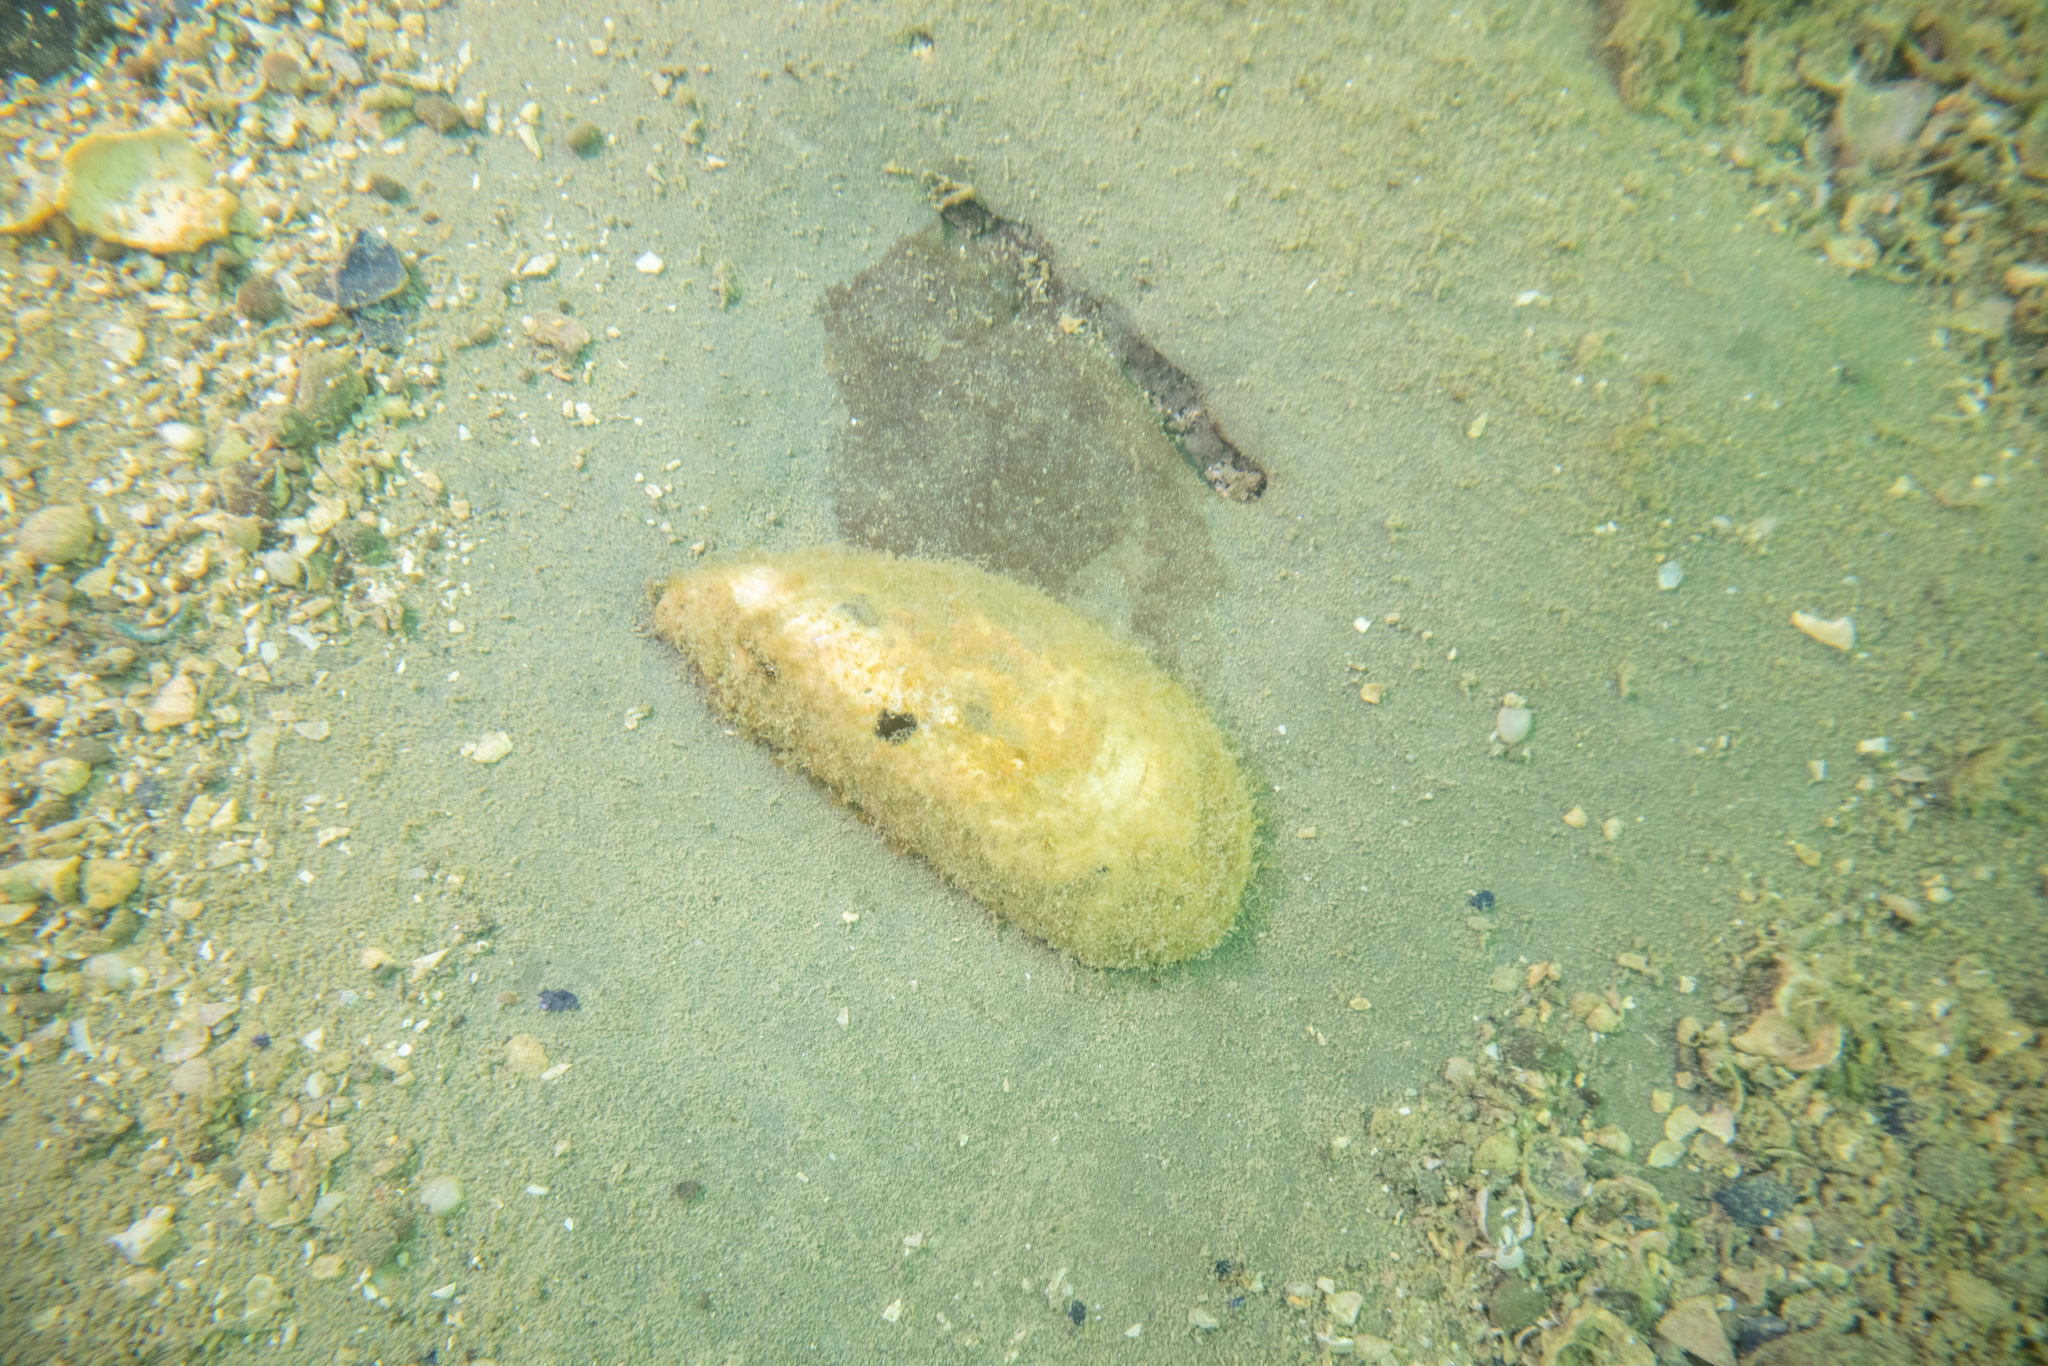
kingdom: Animalia
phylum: Mollusca
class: Bivalvia
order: Mytilida
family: Mytilidae
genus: Perna
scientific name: Perna canaliculus
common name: New zealand greenshelltm
